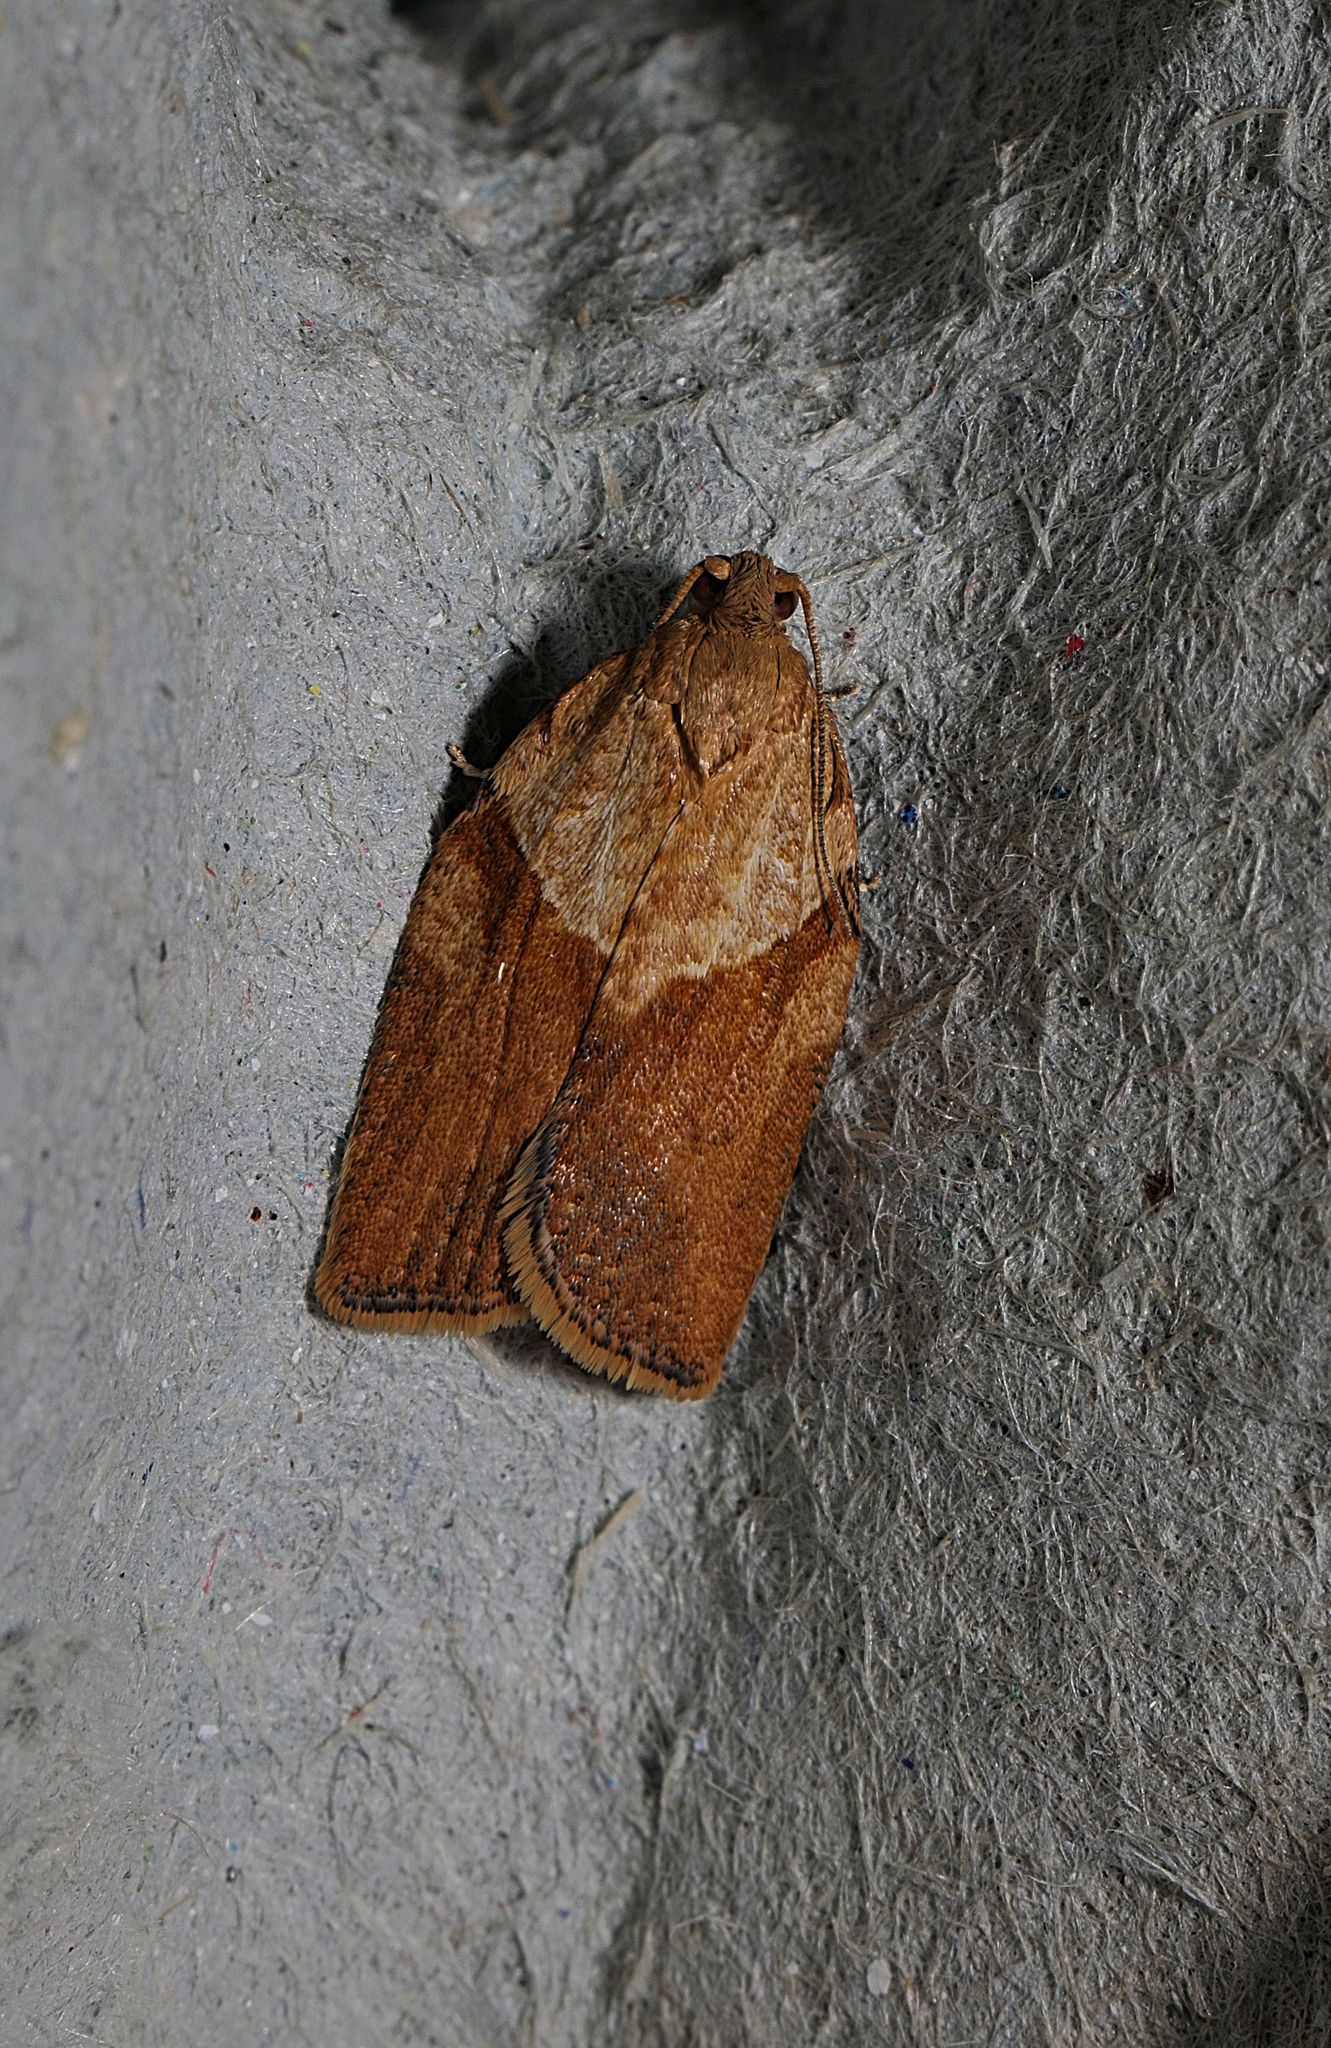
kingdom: Animalia
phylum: Arthropoda
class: Insecta
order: Lepidoptera
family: Tortricidae
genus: Epiphyas
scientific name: Epiphyas postvittana
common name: Light brown apple moth
